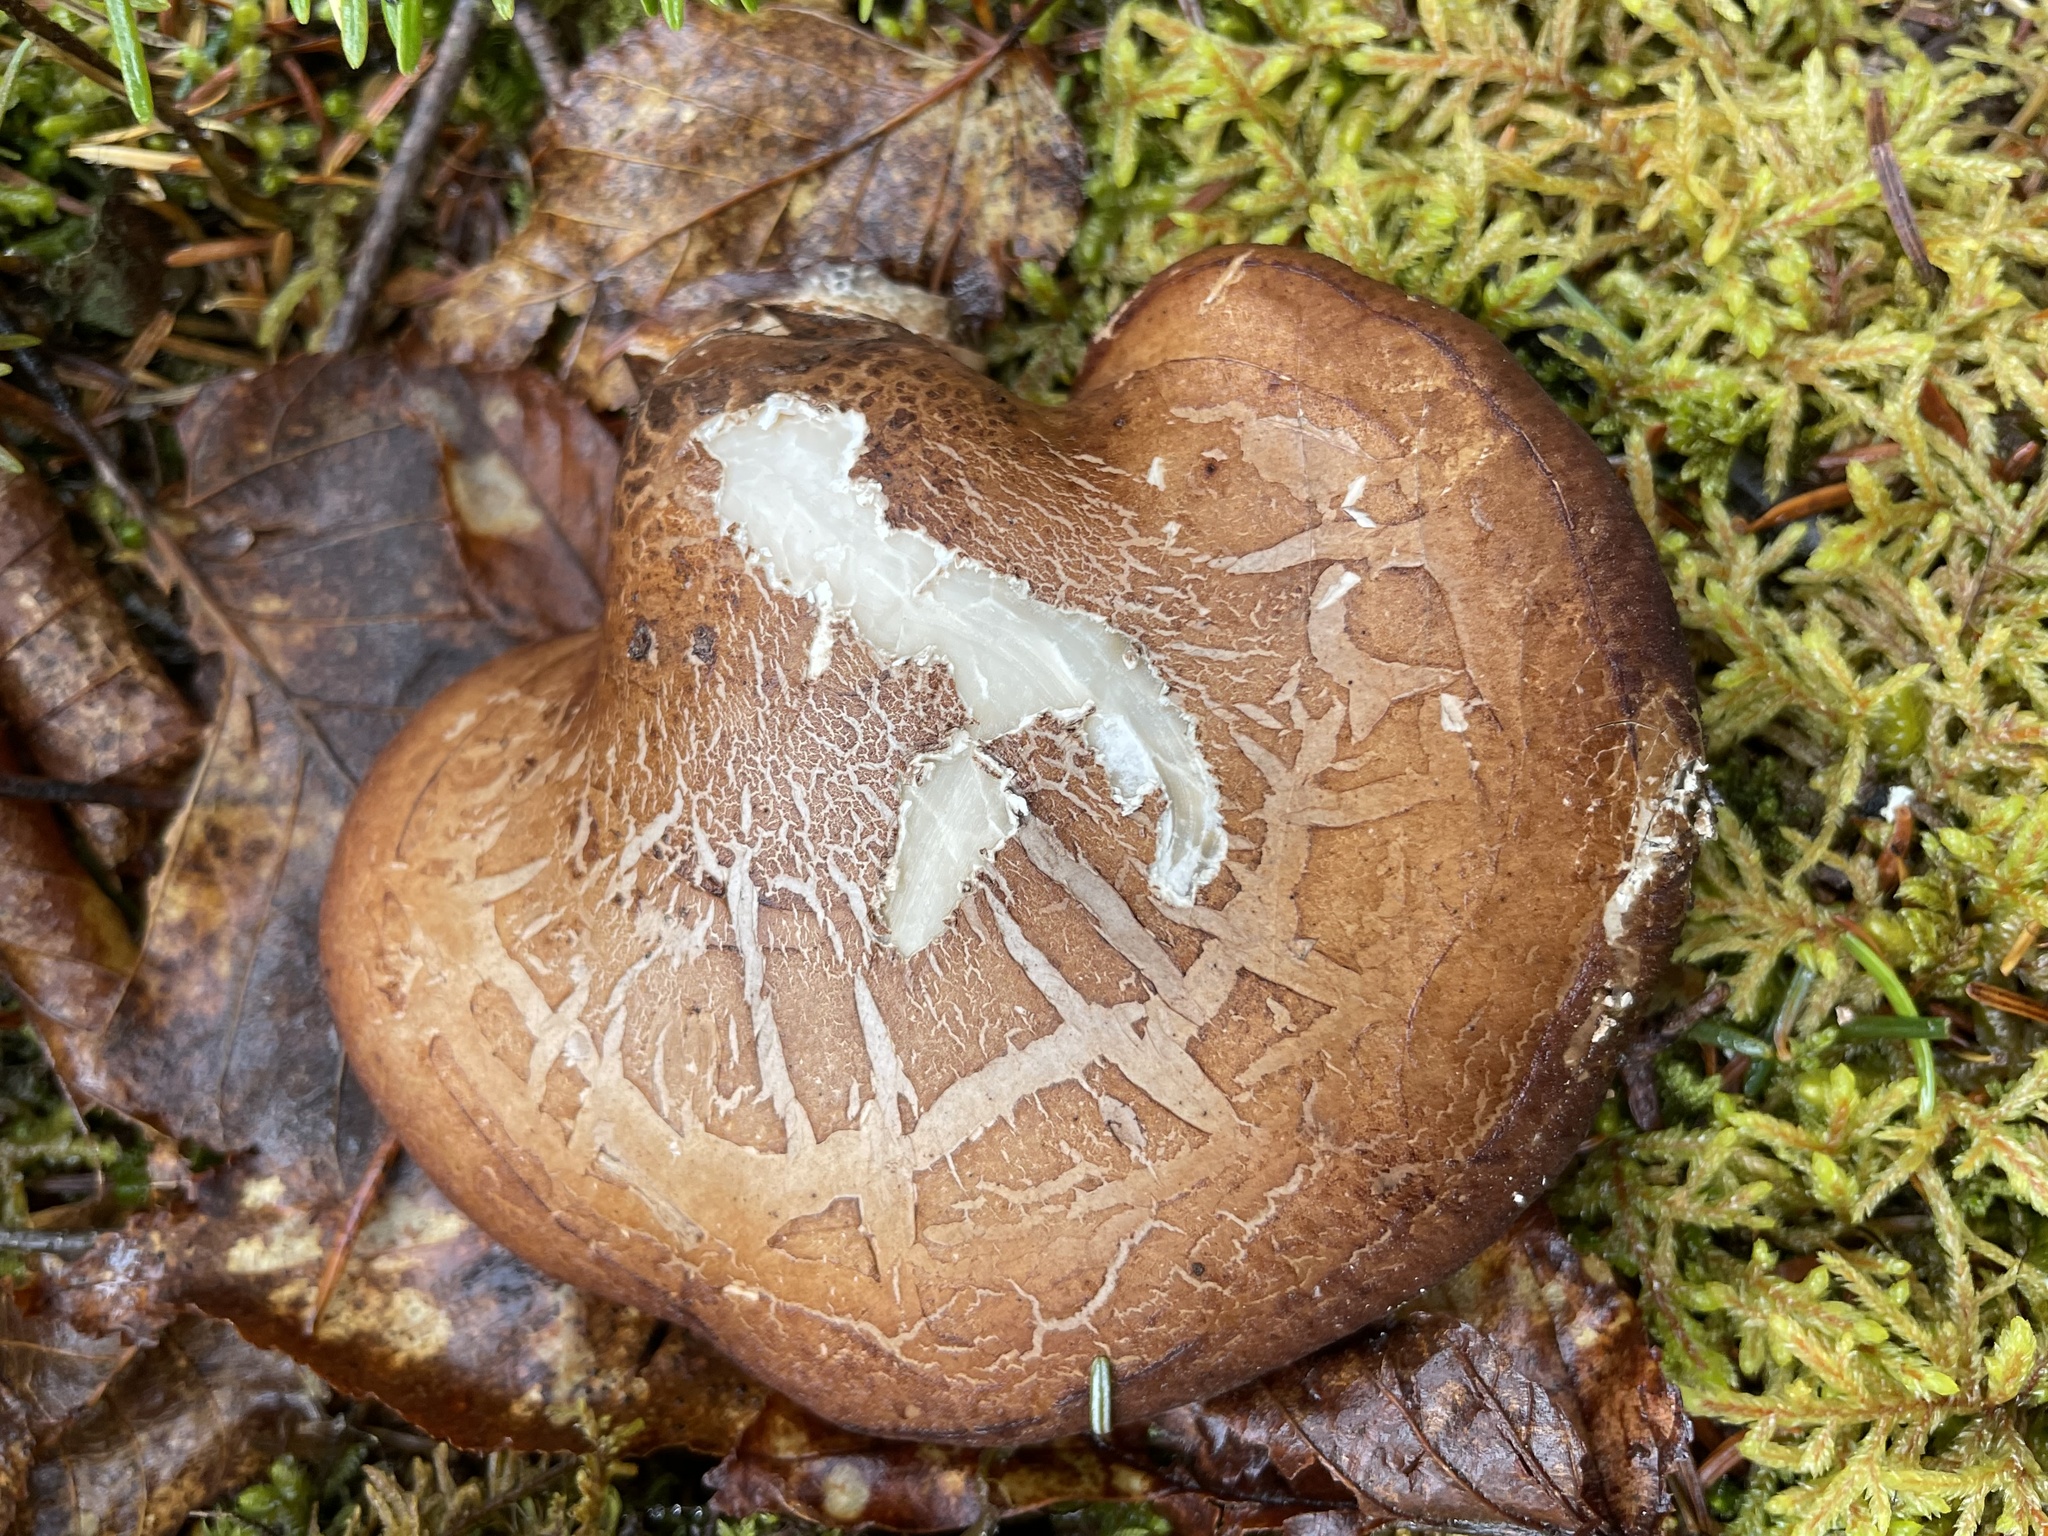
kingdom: Fungi
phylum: Basidiomycota
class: Agaricomycetes
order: Polyporales
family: Fomitopsidaceae
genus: Fomitopsis
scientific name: Fomitopsis betulina
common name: Birch polypore
